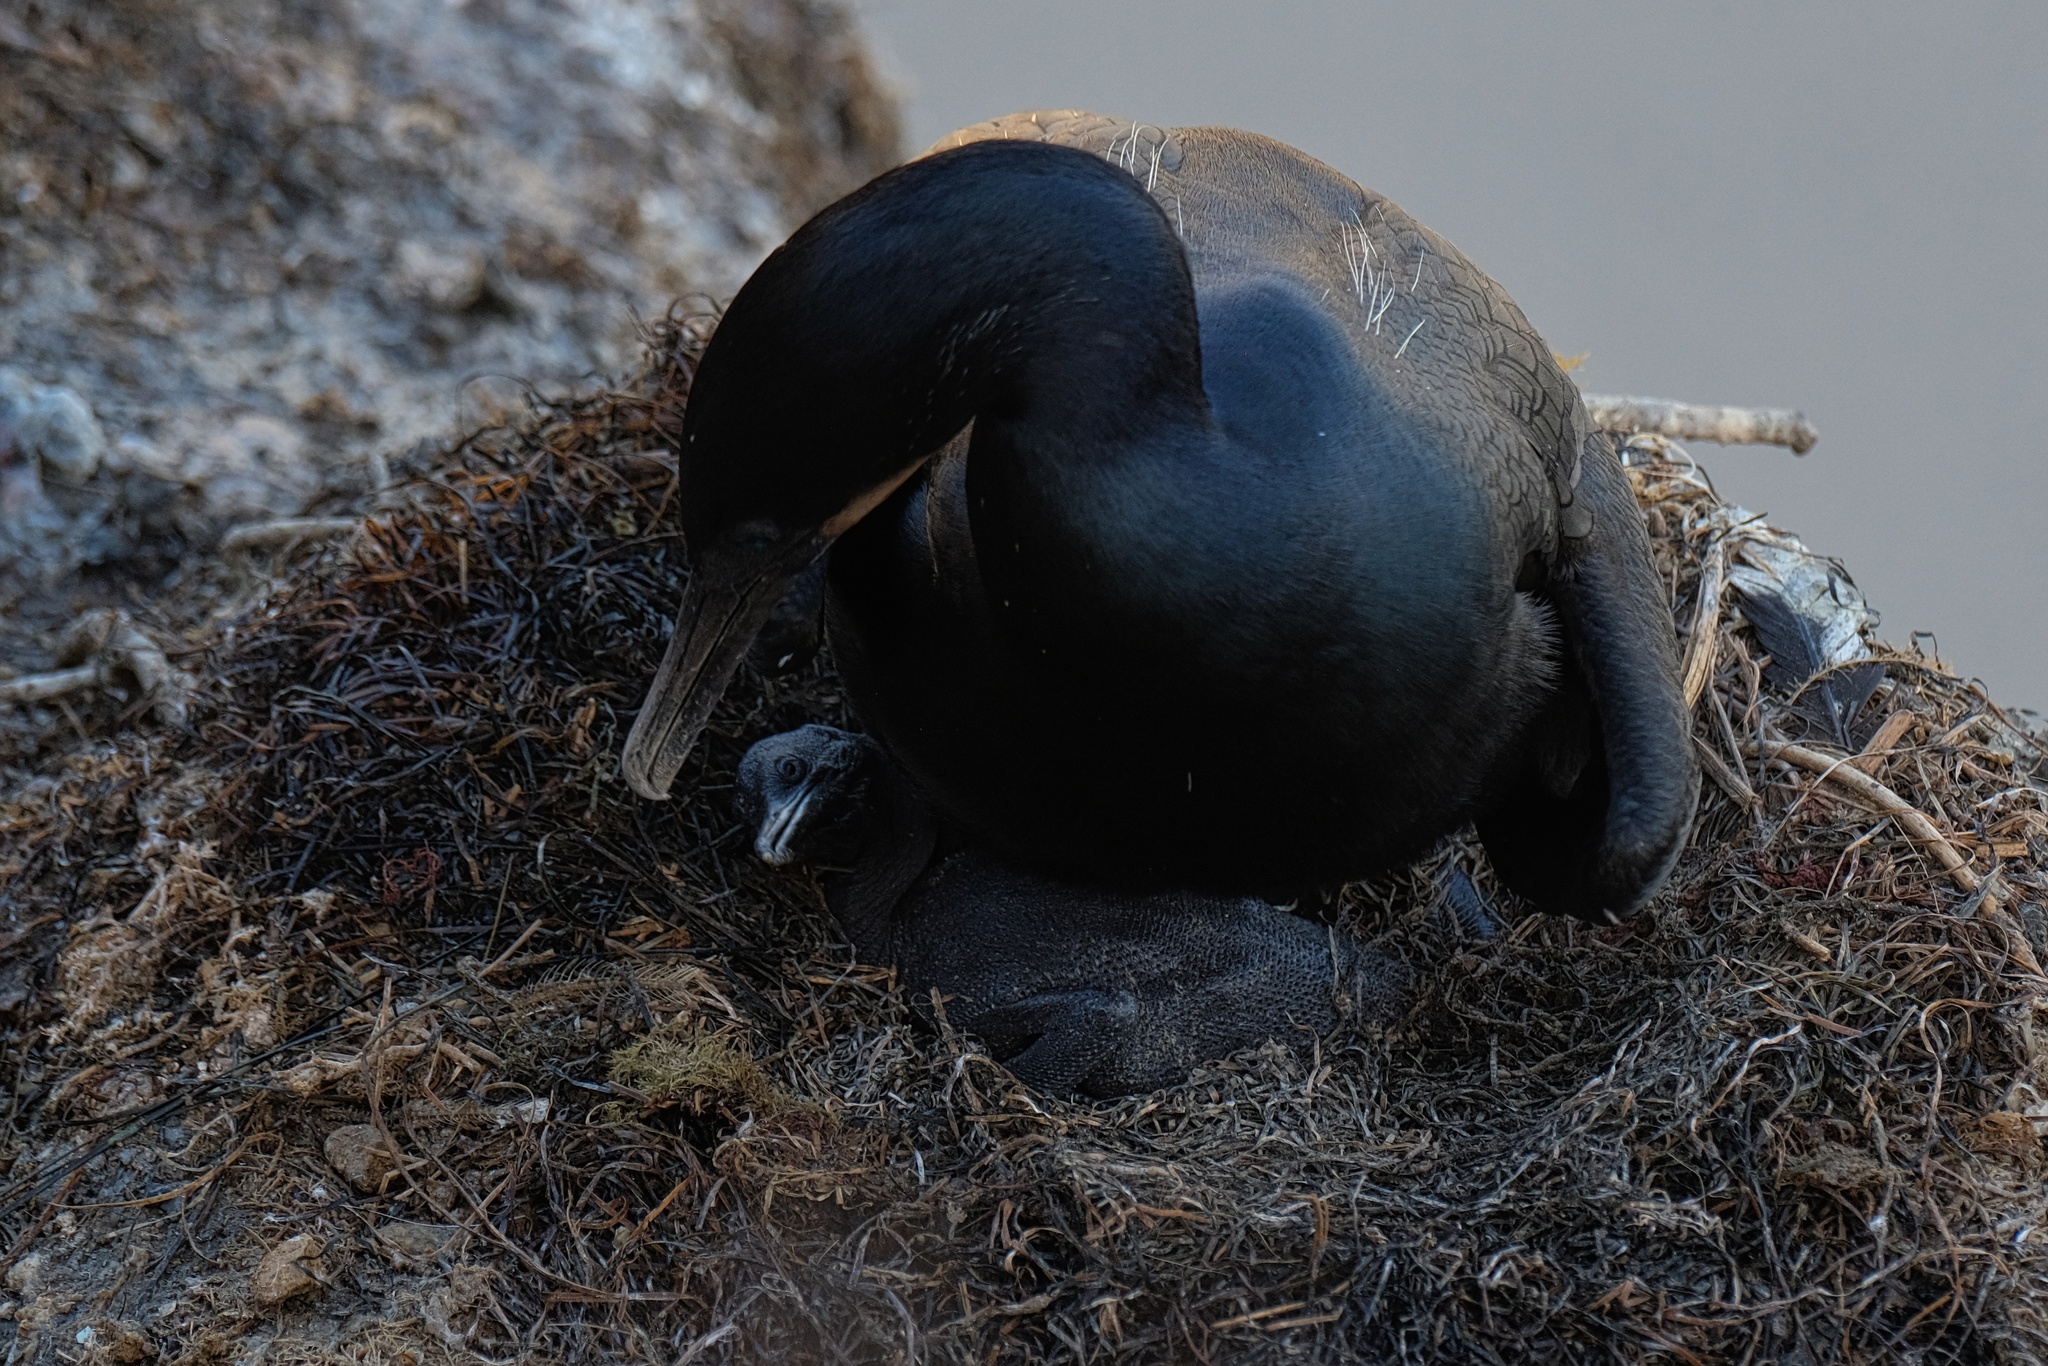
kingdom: Animalia
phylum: Chordata
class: Aves
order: Suliformes
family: Phalacrocoracidae
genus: Urile
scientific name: Urile penicillatus
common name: Brandt's cormorant
